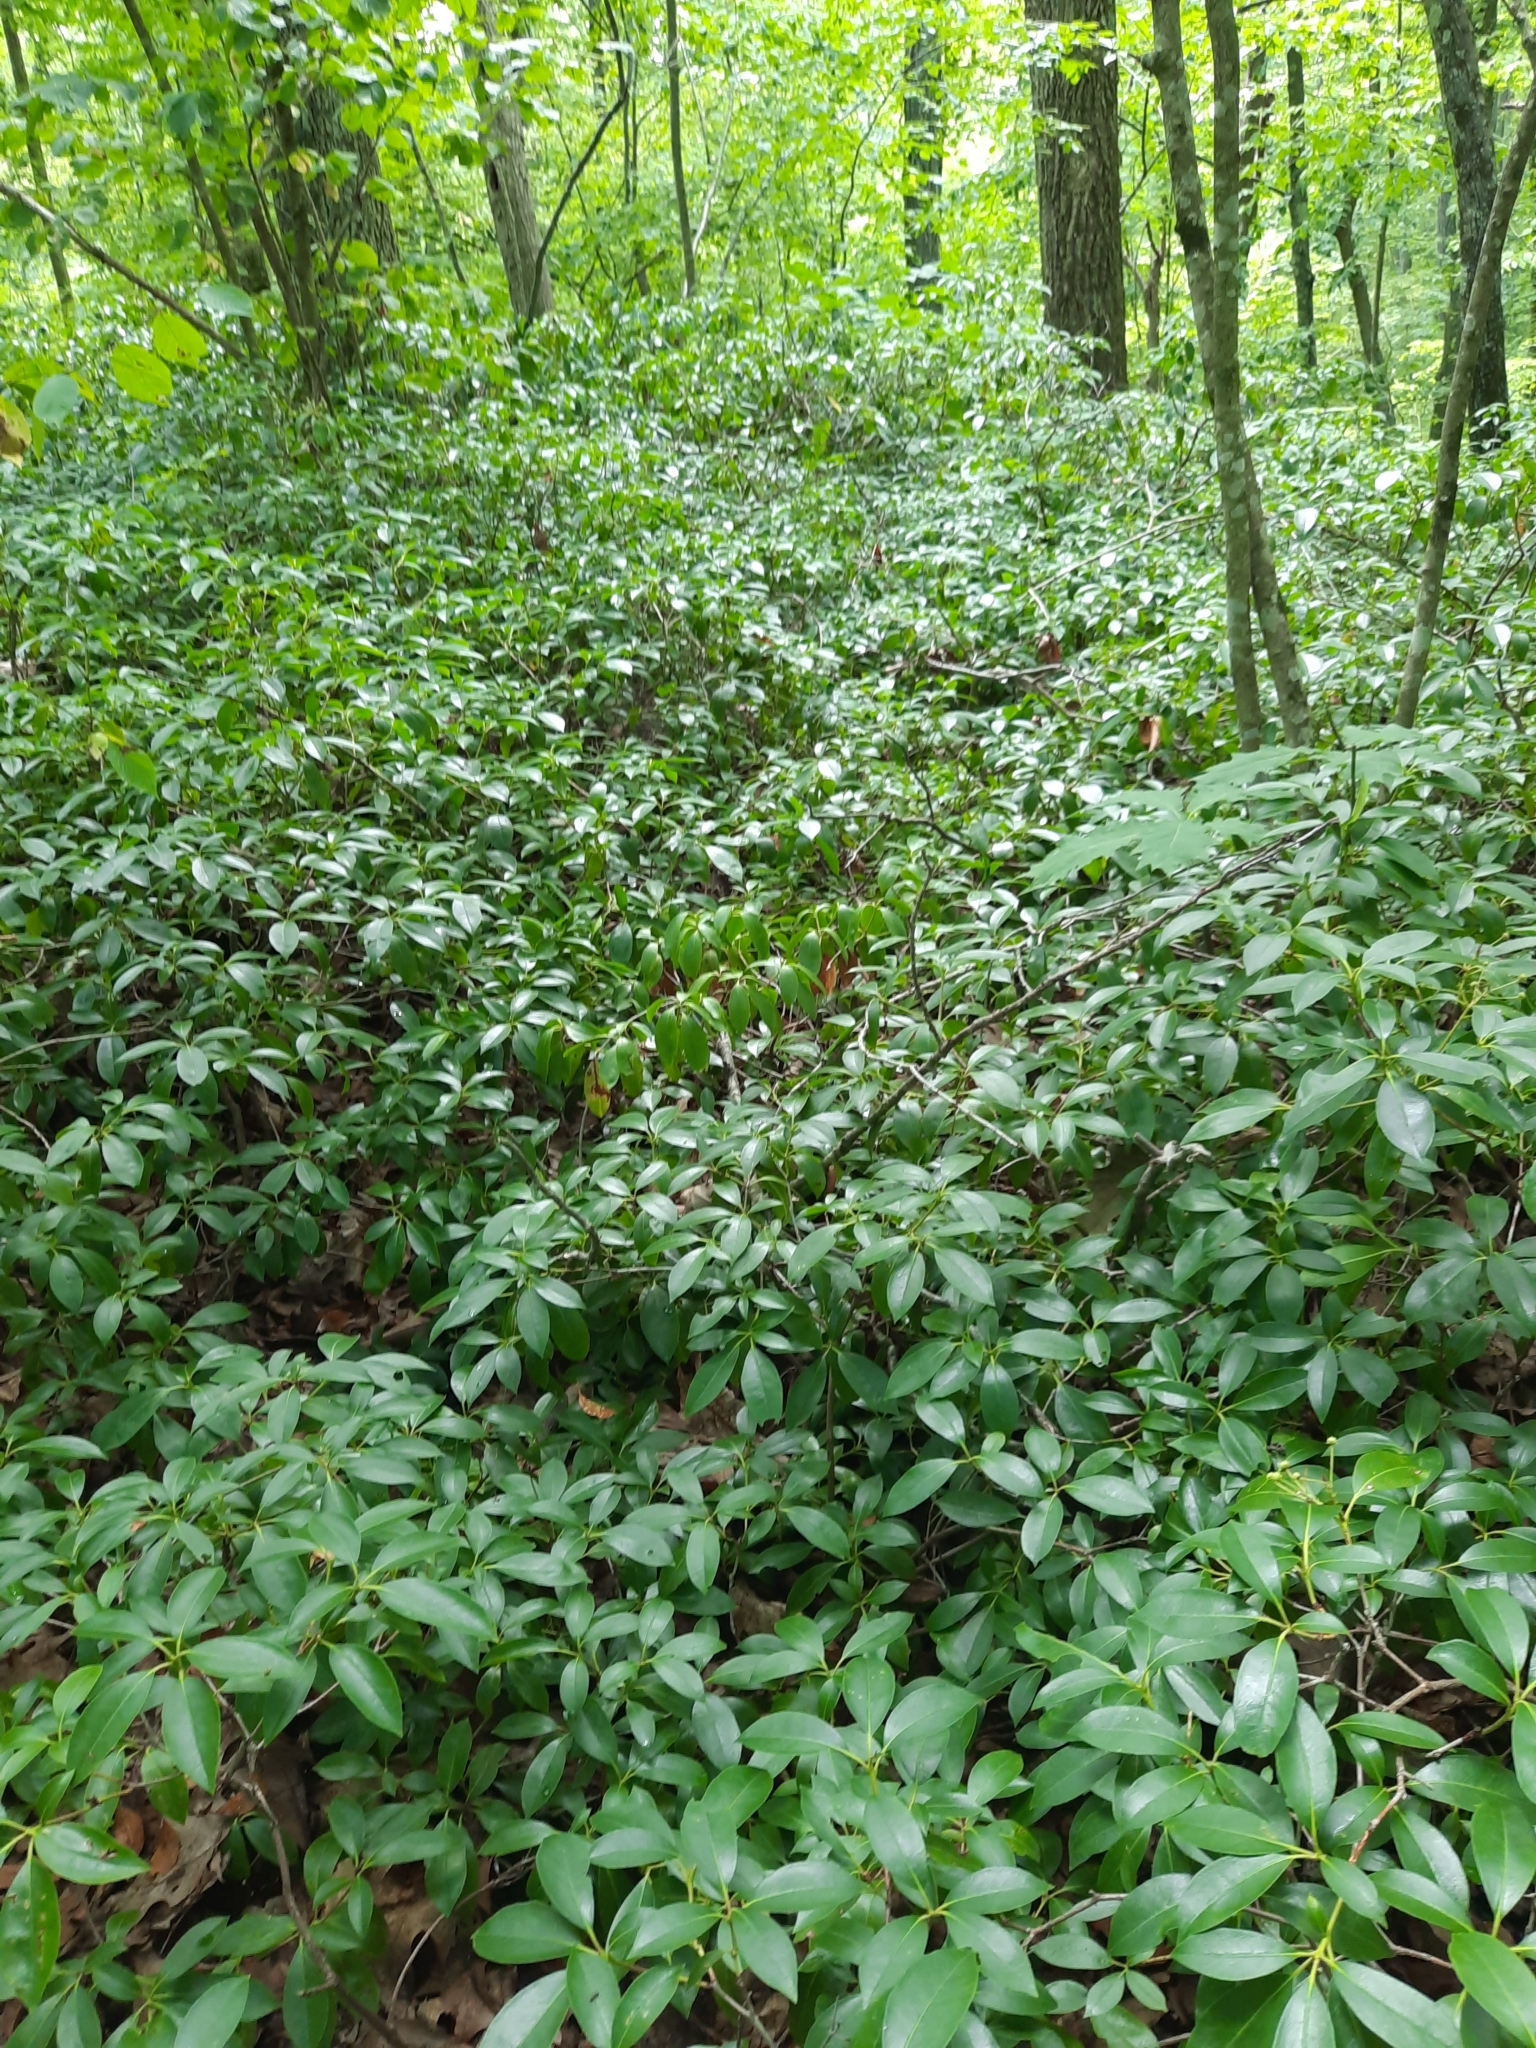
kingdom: Plantae
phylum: Tracheophyta
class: Magnoliopsida
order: Ericales
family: Ericaceae
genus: Kalmia
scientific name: Kalmia latifolia
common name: Mountain-laurel
